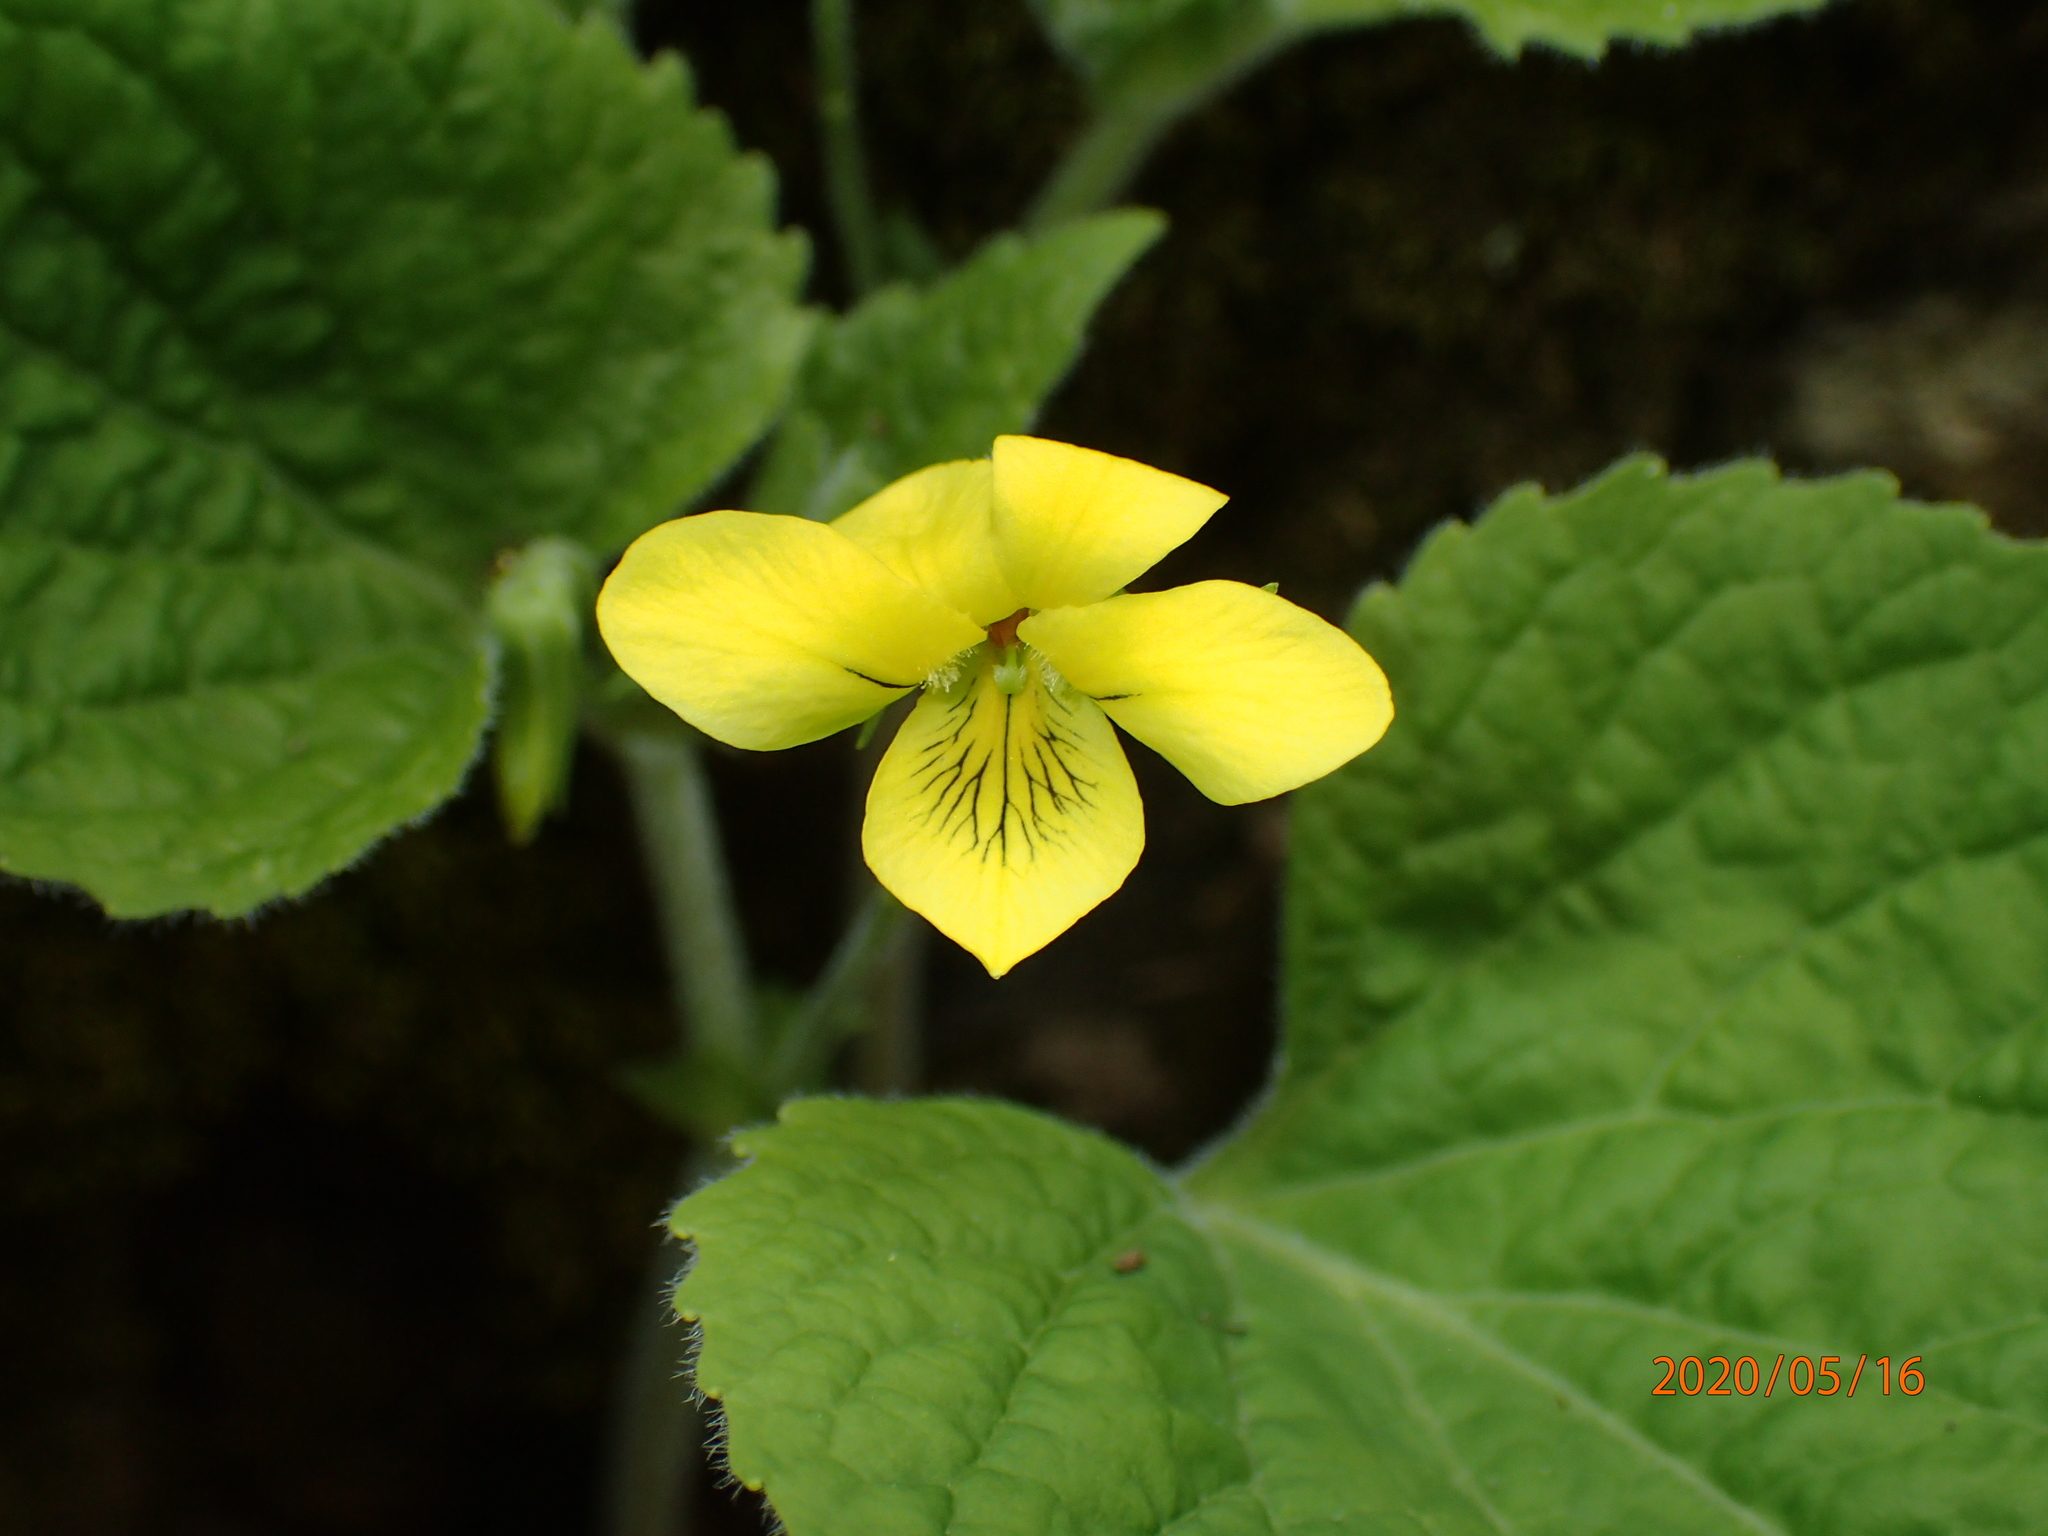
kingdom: Plantae
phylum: Tracheophyta
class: Magnoliopsida
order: Malpighiales
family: Violaceae
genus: Viola
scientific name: Viola pubescens
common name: Yellow forest violet
